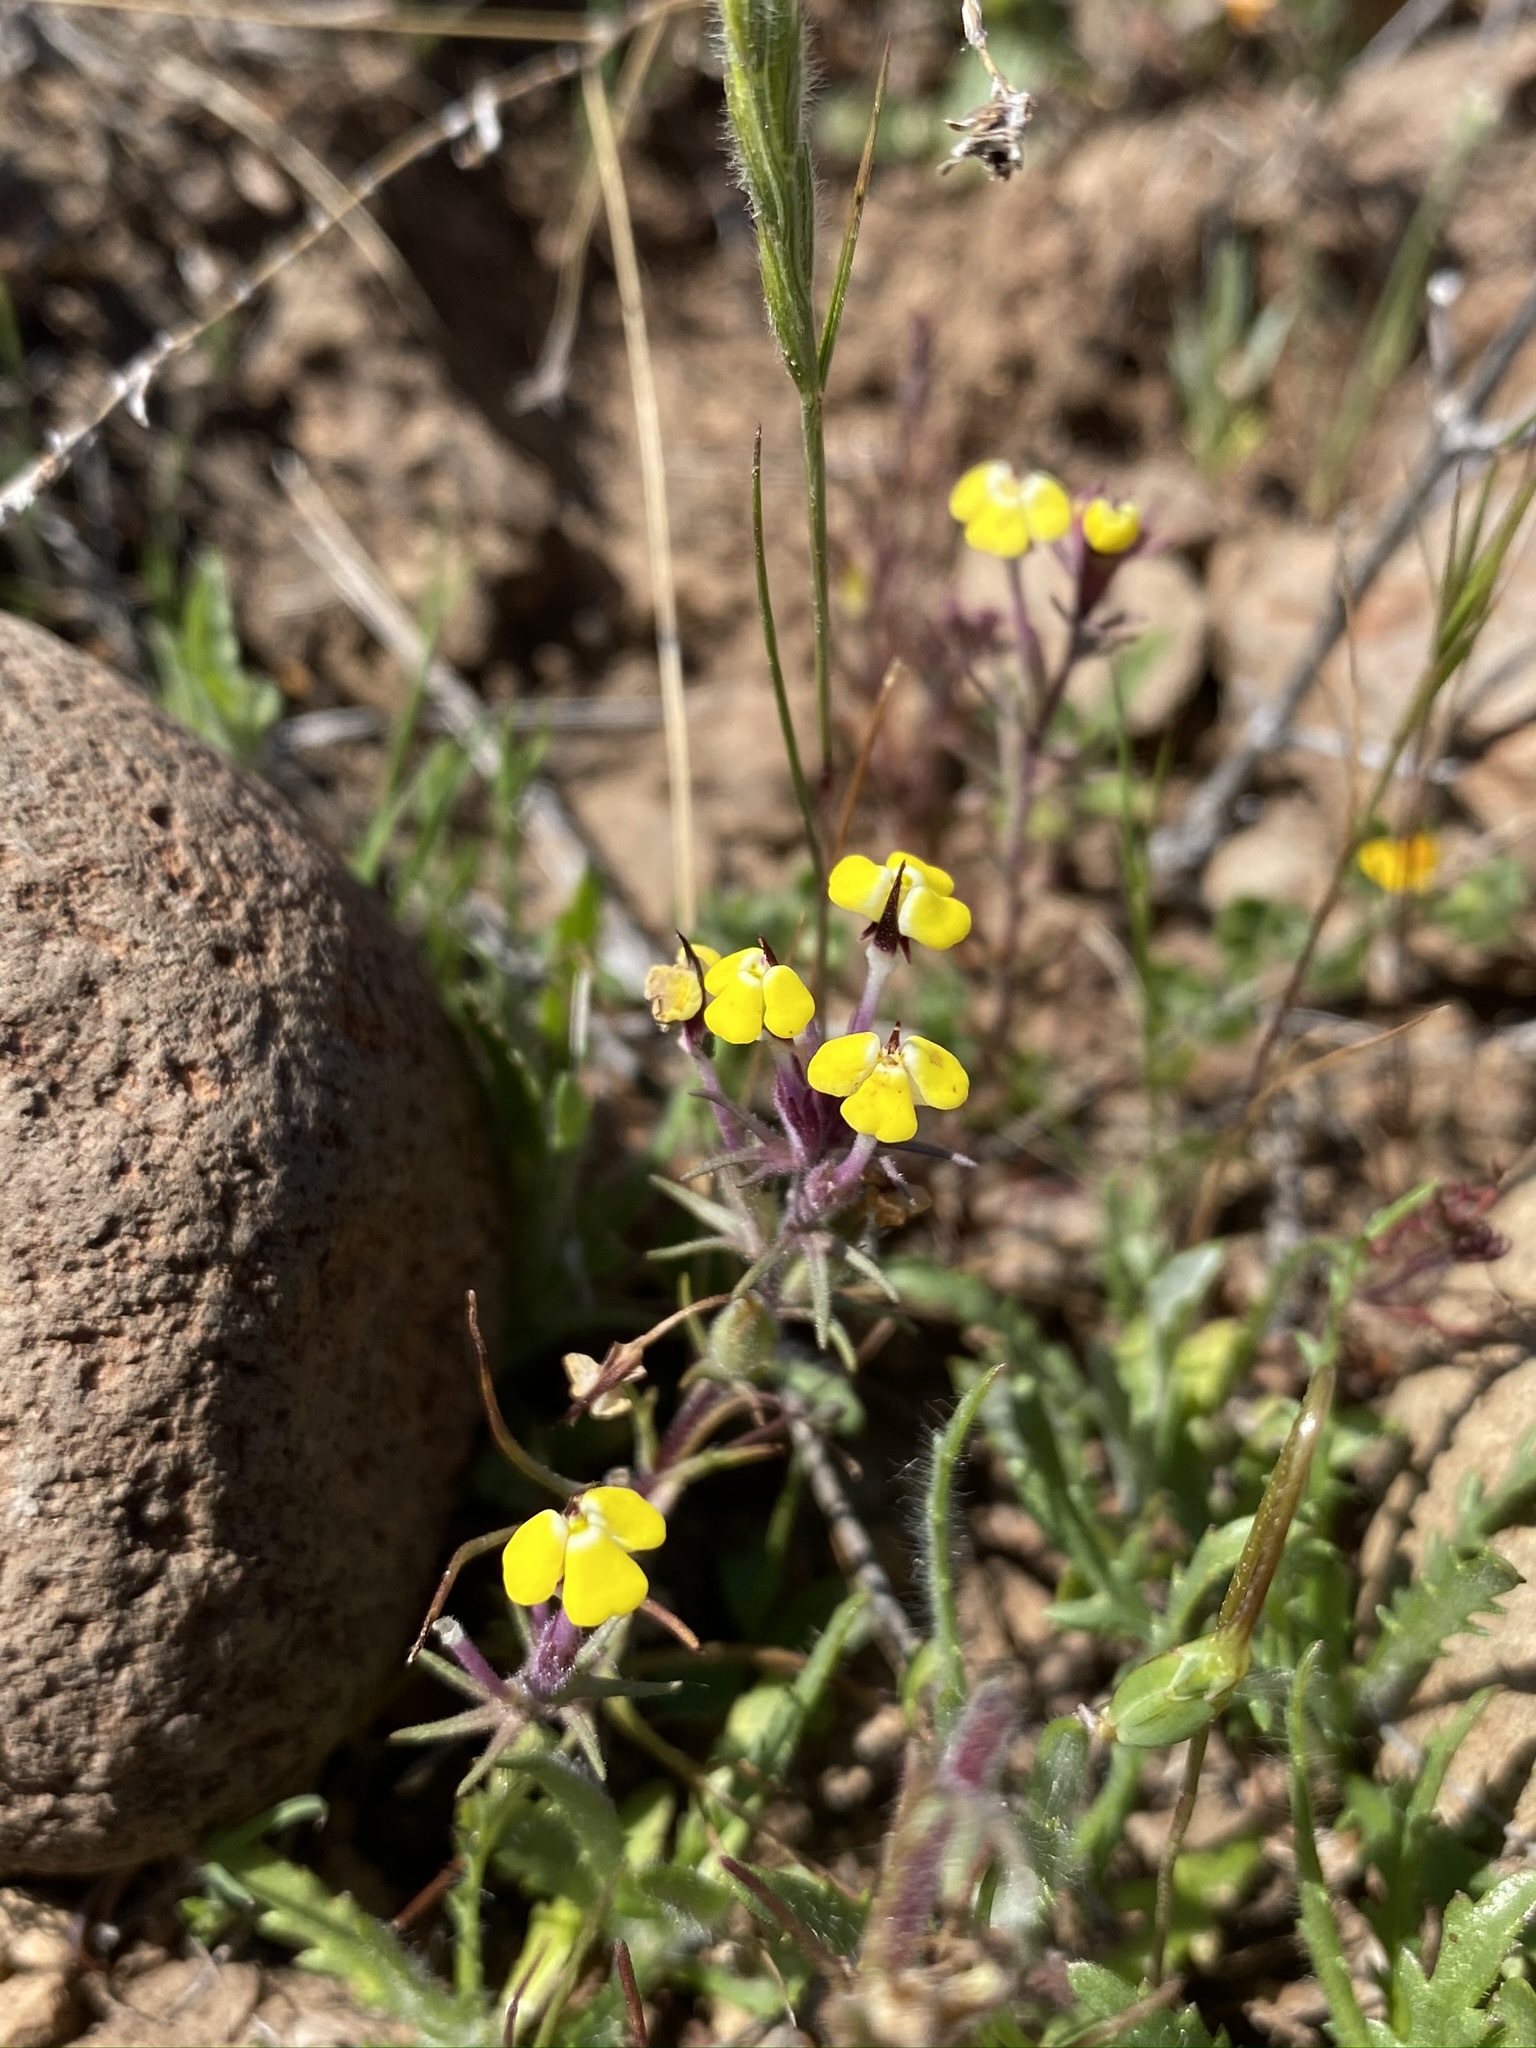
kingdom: Plantae
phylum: Tracheophyta
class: Magnoliopsida
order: Lamiales
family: Orobanchaceae
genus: Triphysaria
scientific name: Triphysaria eriantha
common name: Johnny-tuck
